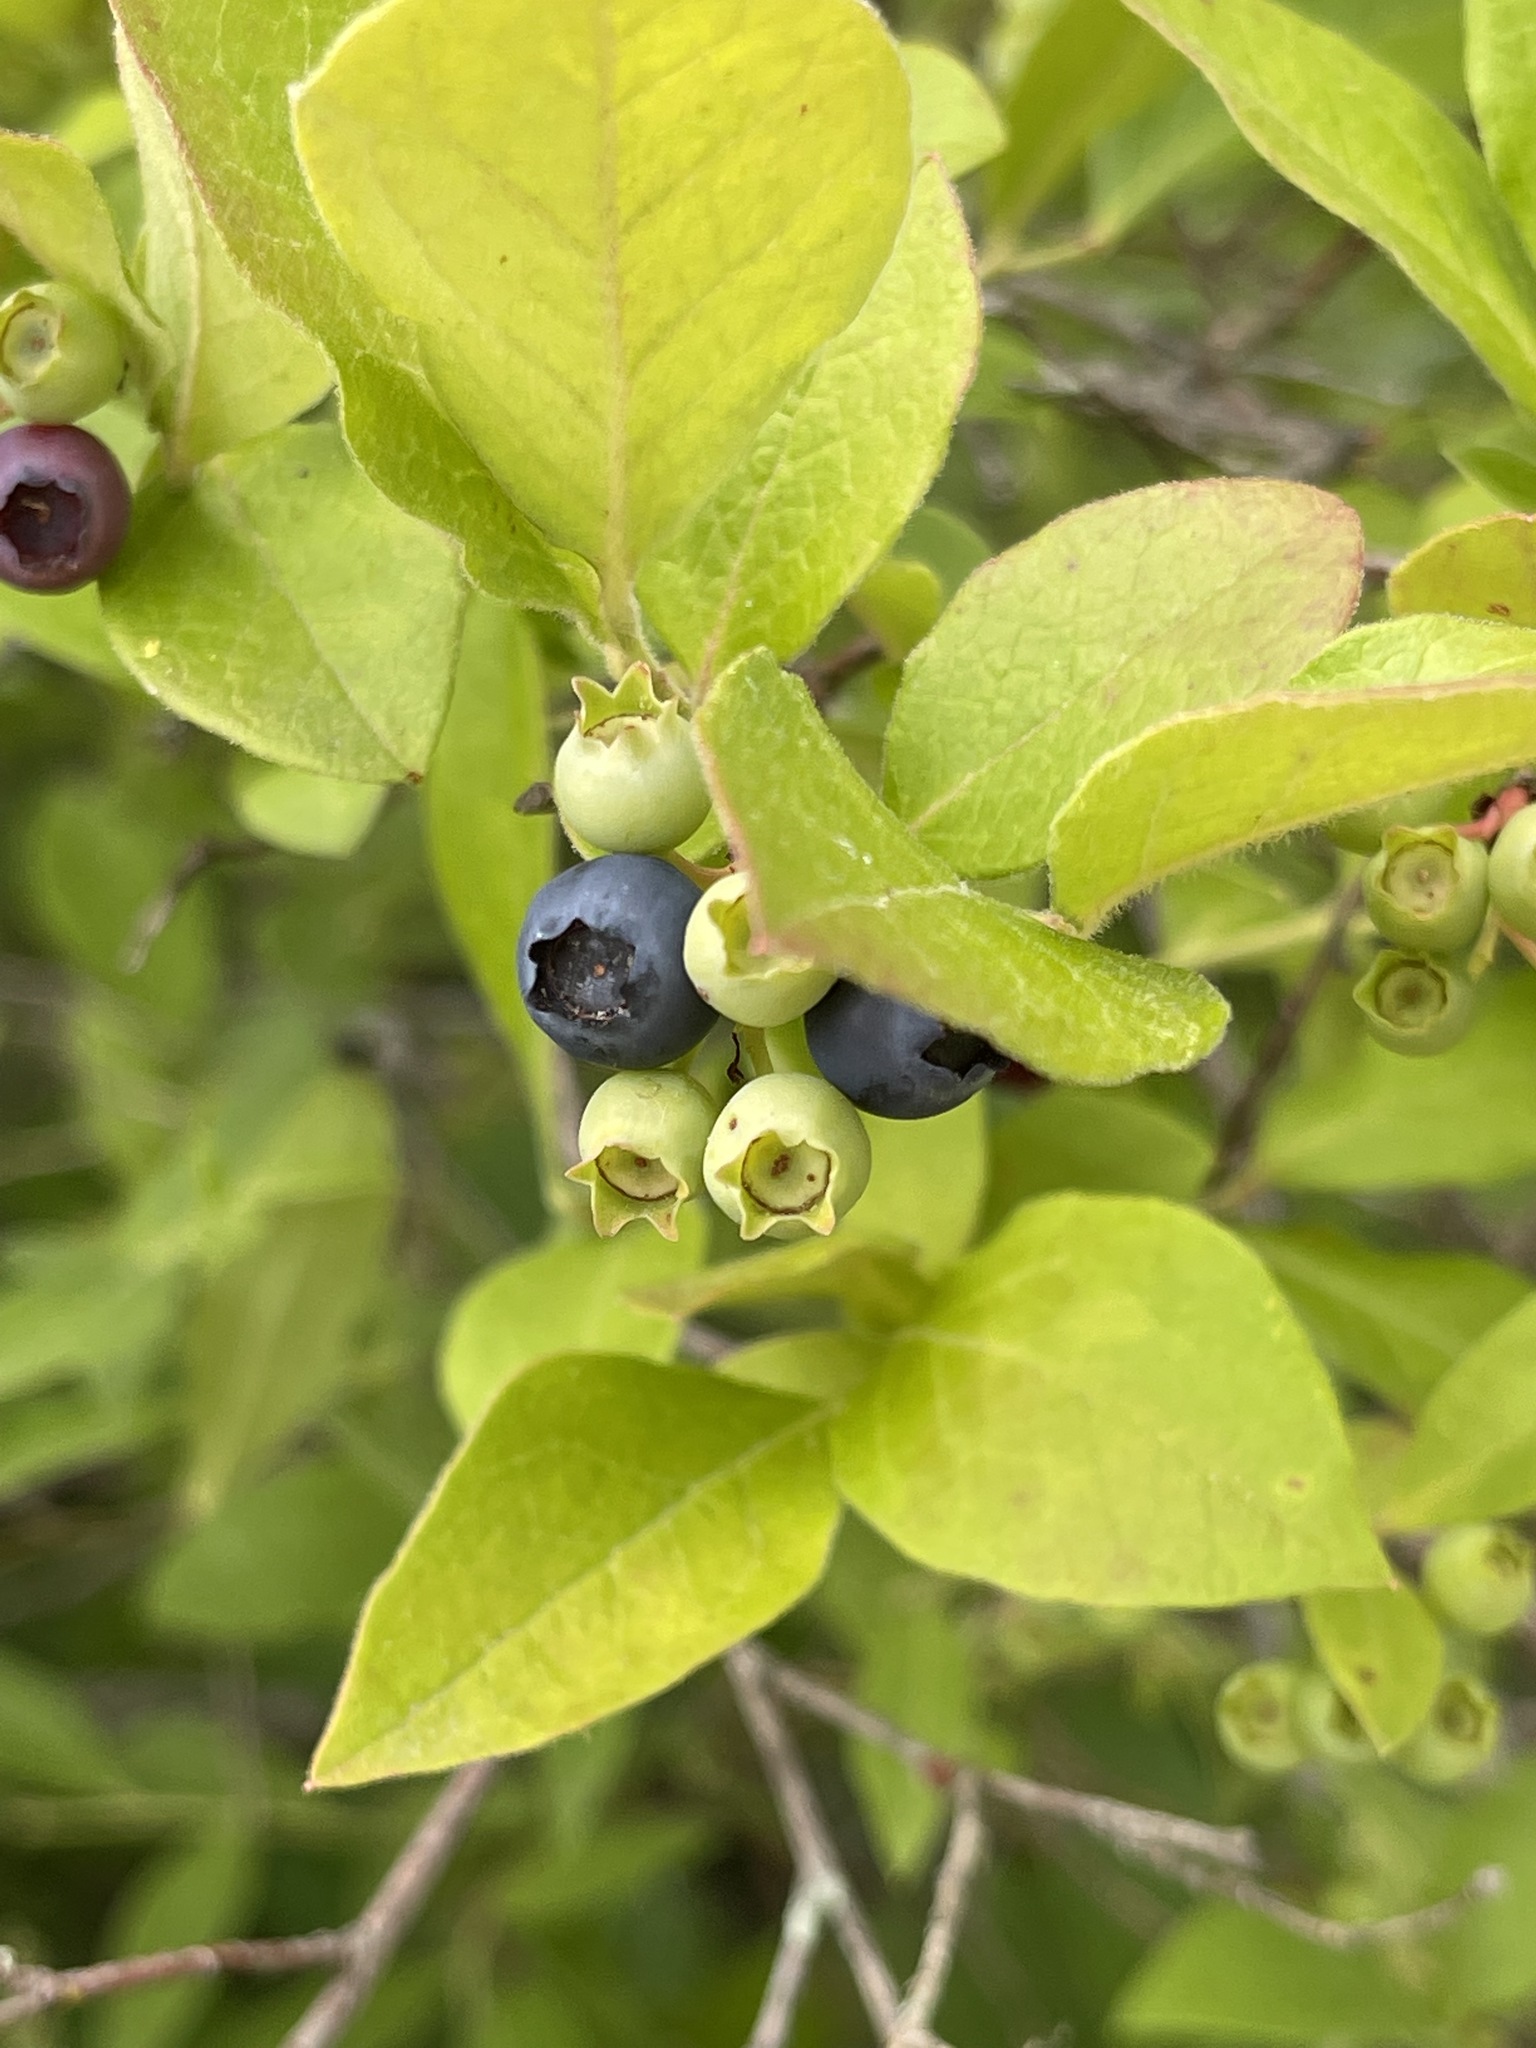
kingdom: Plantae
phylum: Tracheophyta
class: Magnoliopsida
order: Ericales
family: Ericaceae
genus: Vaccinium
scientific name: Vaccinium corymbosum
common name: Blueberry
